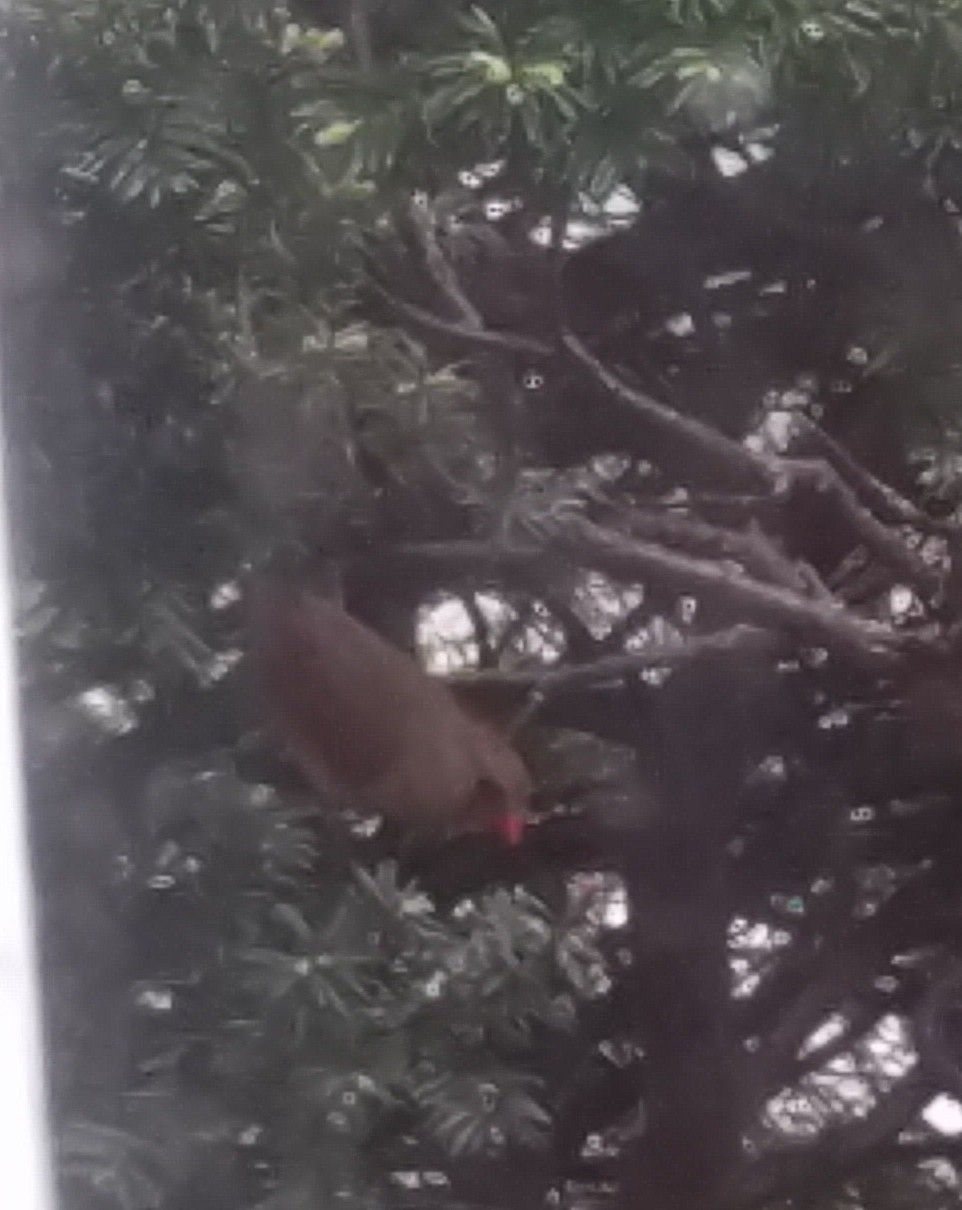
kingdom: Animalia
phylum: Chordata
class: Aves
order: Passeriformes
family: Cardinalidae
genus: Cardinalis
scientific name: Cardinalis cardinalis
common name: Northern cardinal
